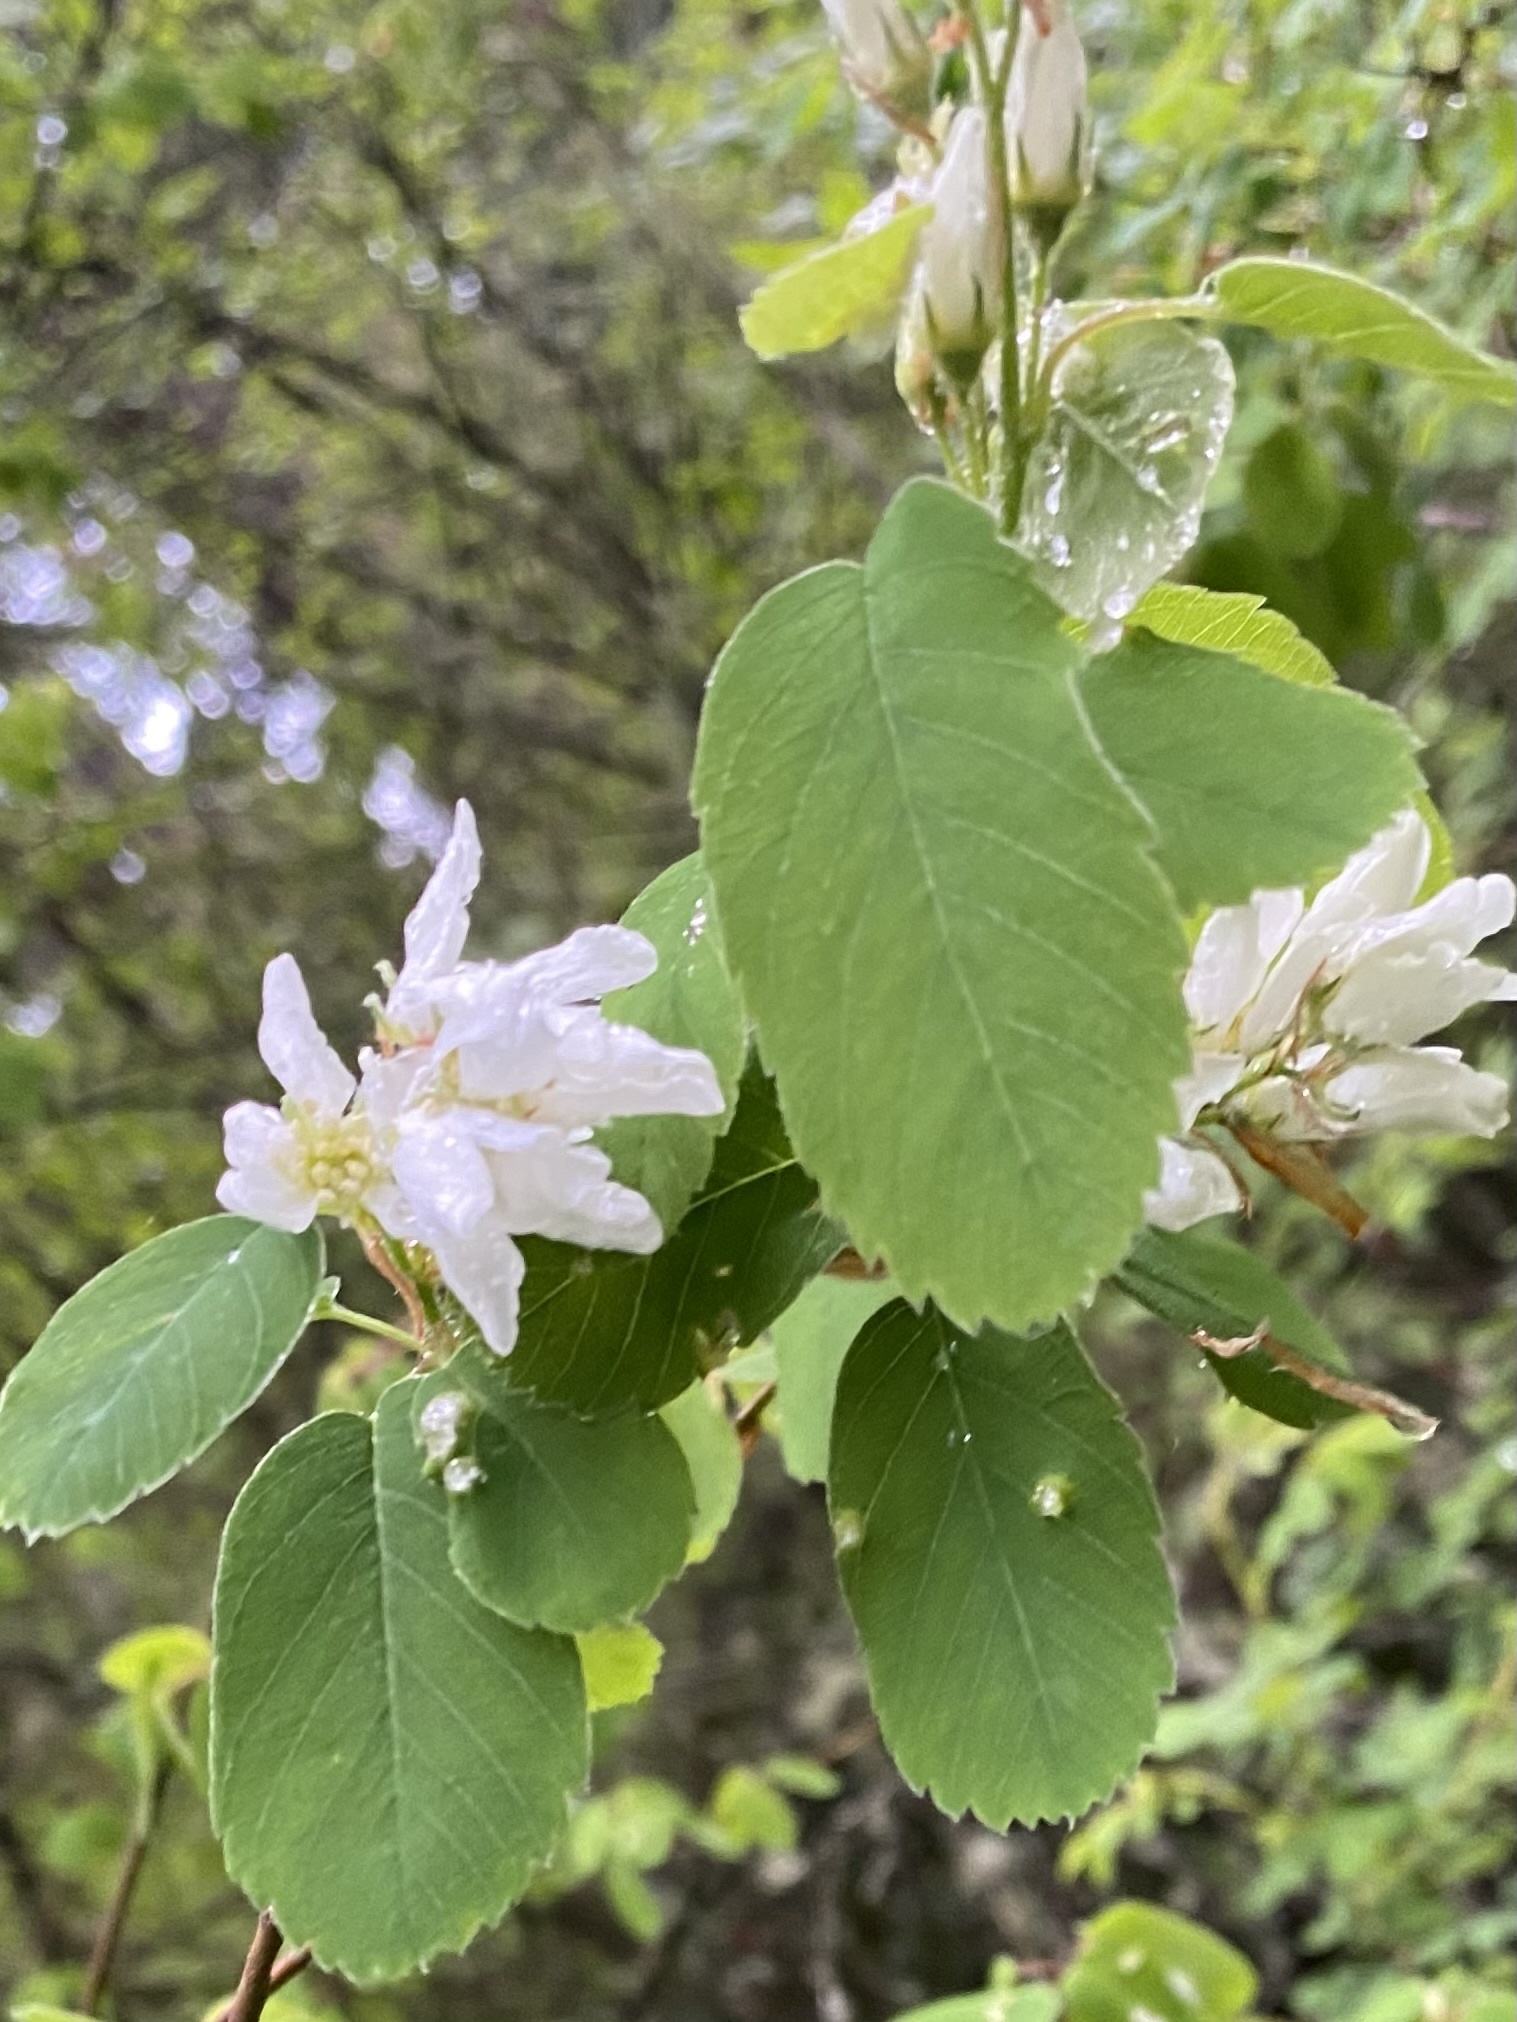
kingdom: Plantae
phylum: Tracheophyta
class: Magnoliopsida
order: Rosales
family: Rosaceae
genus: Amelanchier
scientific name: Amelanchier alnifolia
